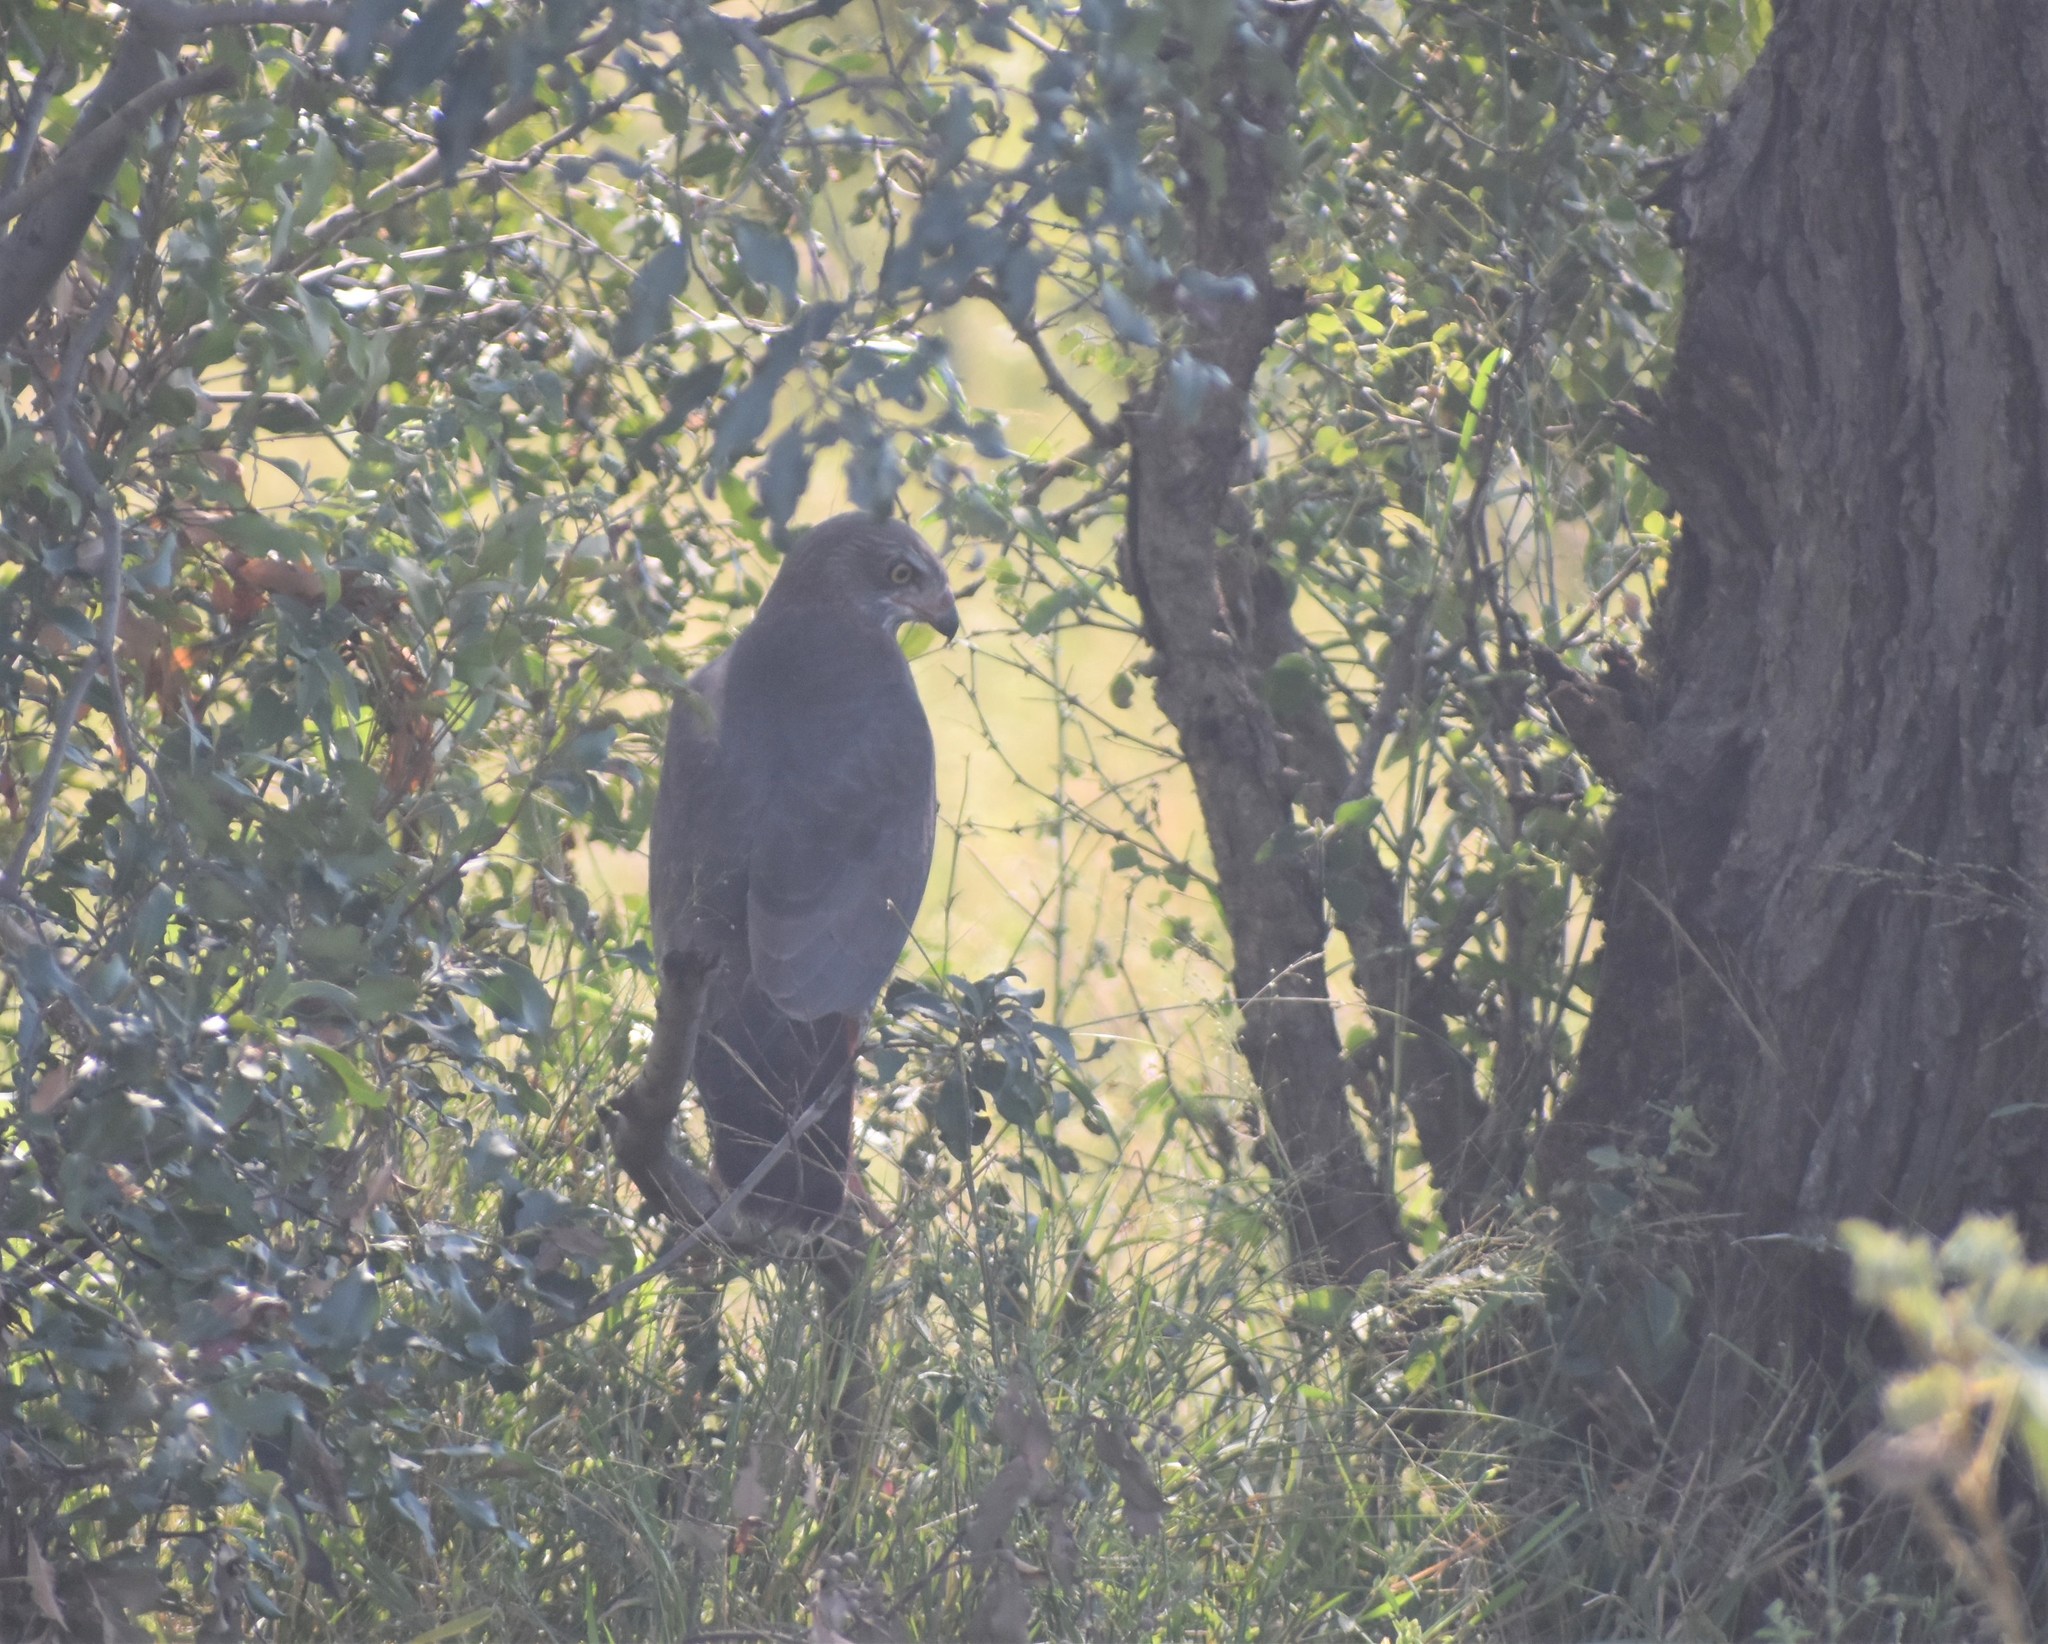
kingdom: Animalia
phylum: Chordata
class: Aves
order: Accipitriformes
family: Accipitridae
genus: Melierax
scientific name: Melierax metabates
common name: Dark chanting-goshawk
